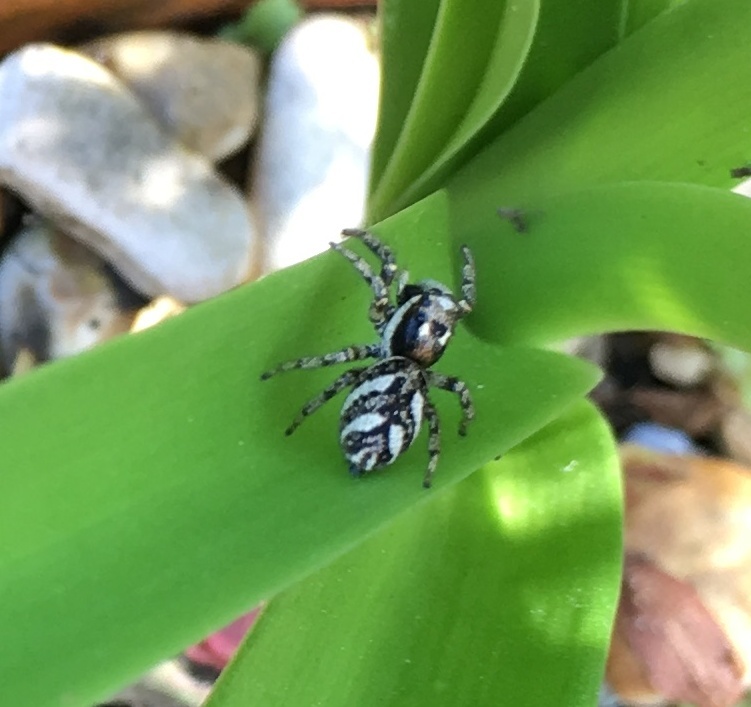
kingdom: Animalia
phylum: Arthropoda
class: Arachnida
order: Araneae
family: Salticidae
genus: Salticus
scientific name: Salticus scenicus
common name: Zebra jumper
